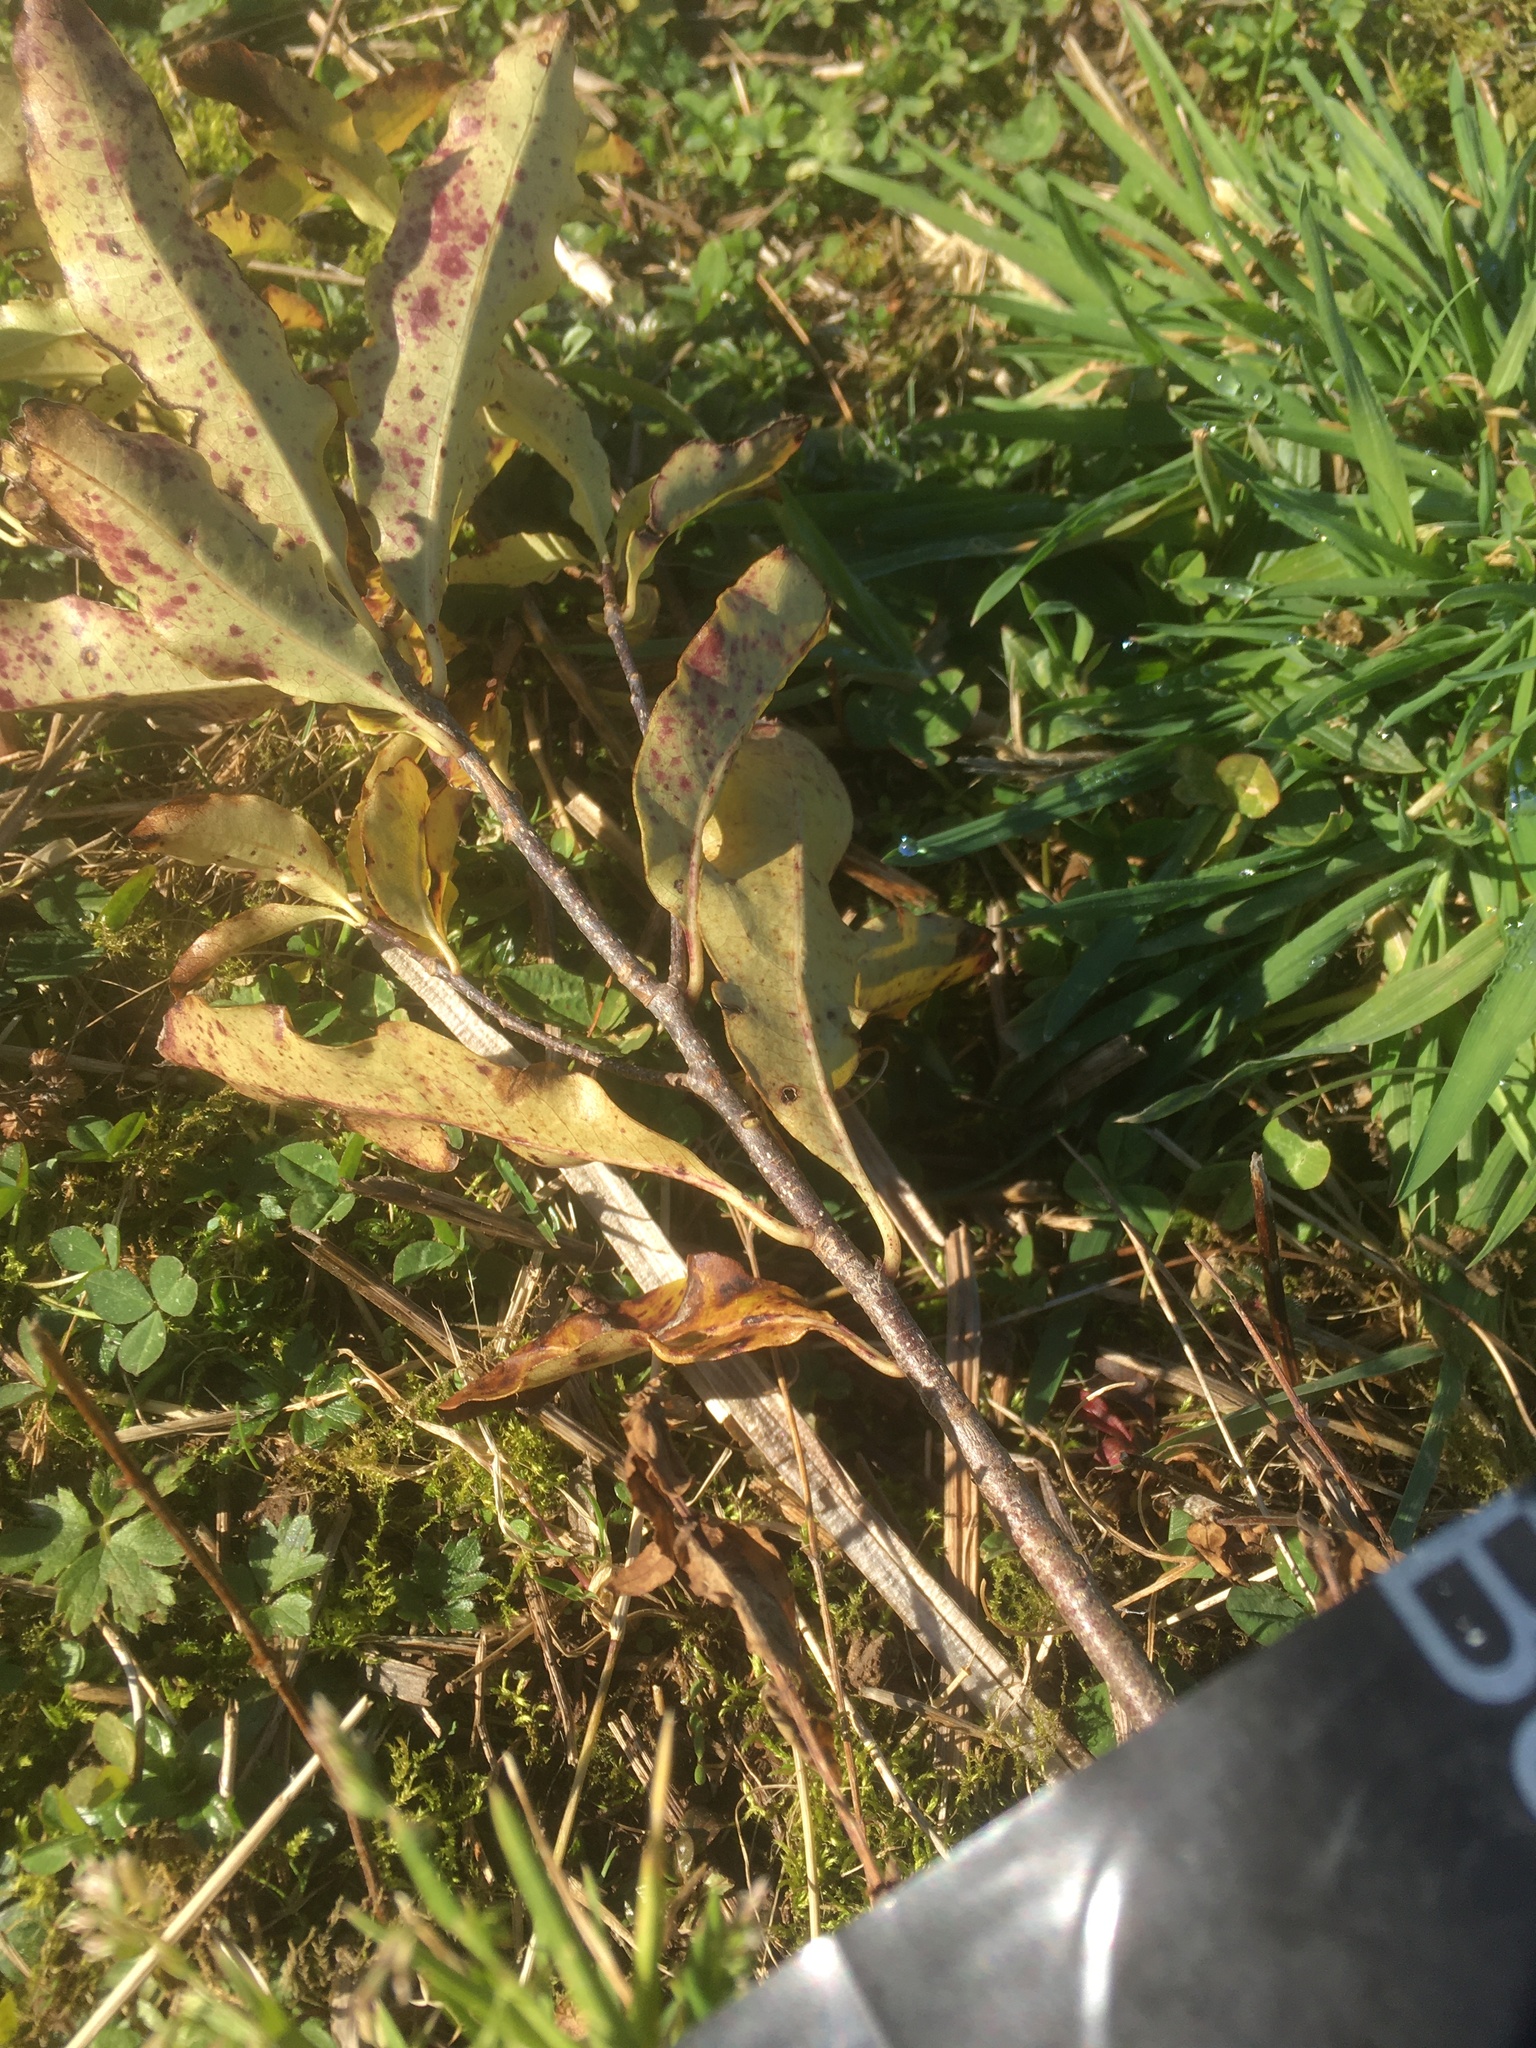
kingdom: Fungi
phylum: Basidiomycota
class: Agaricomycetes
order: Agaricales
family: Bolbitiaceae
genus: Tympanella
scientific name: Tympanella galanthina
